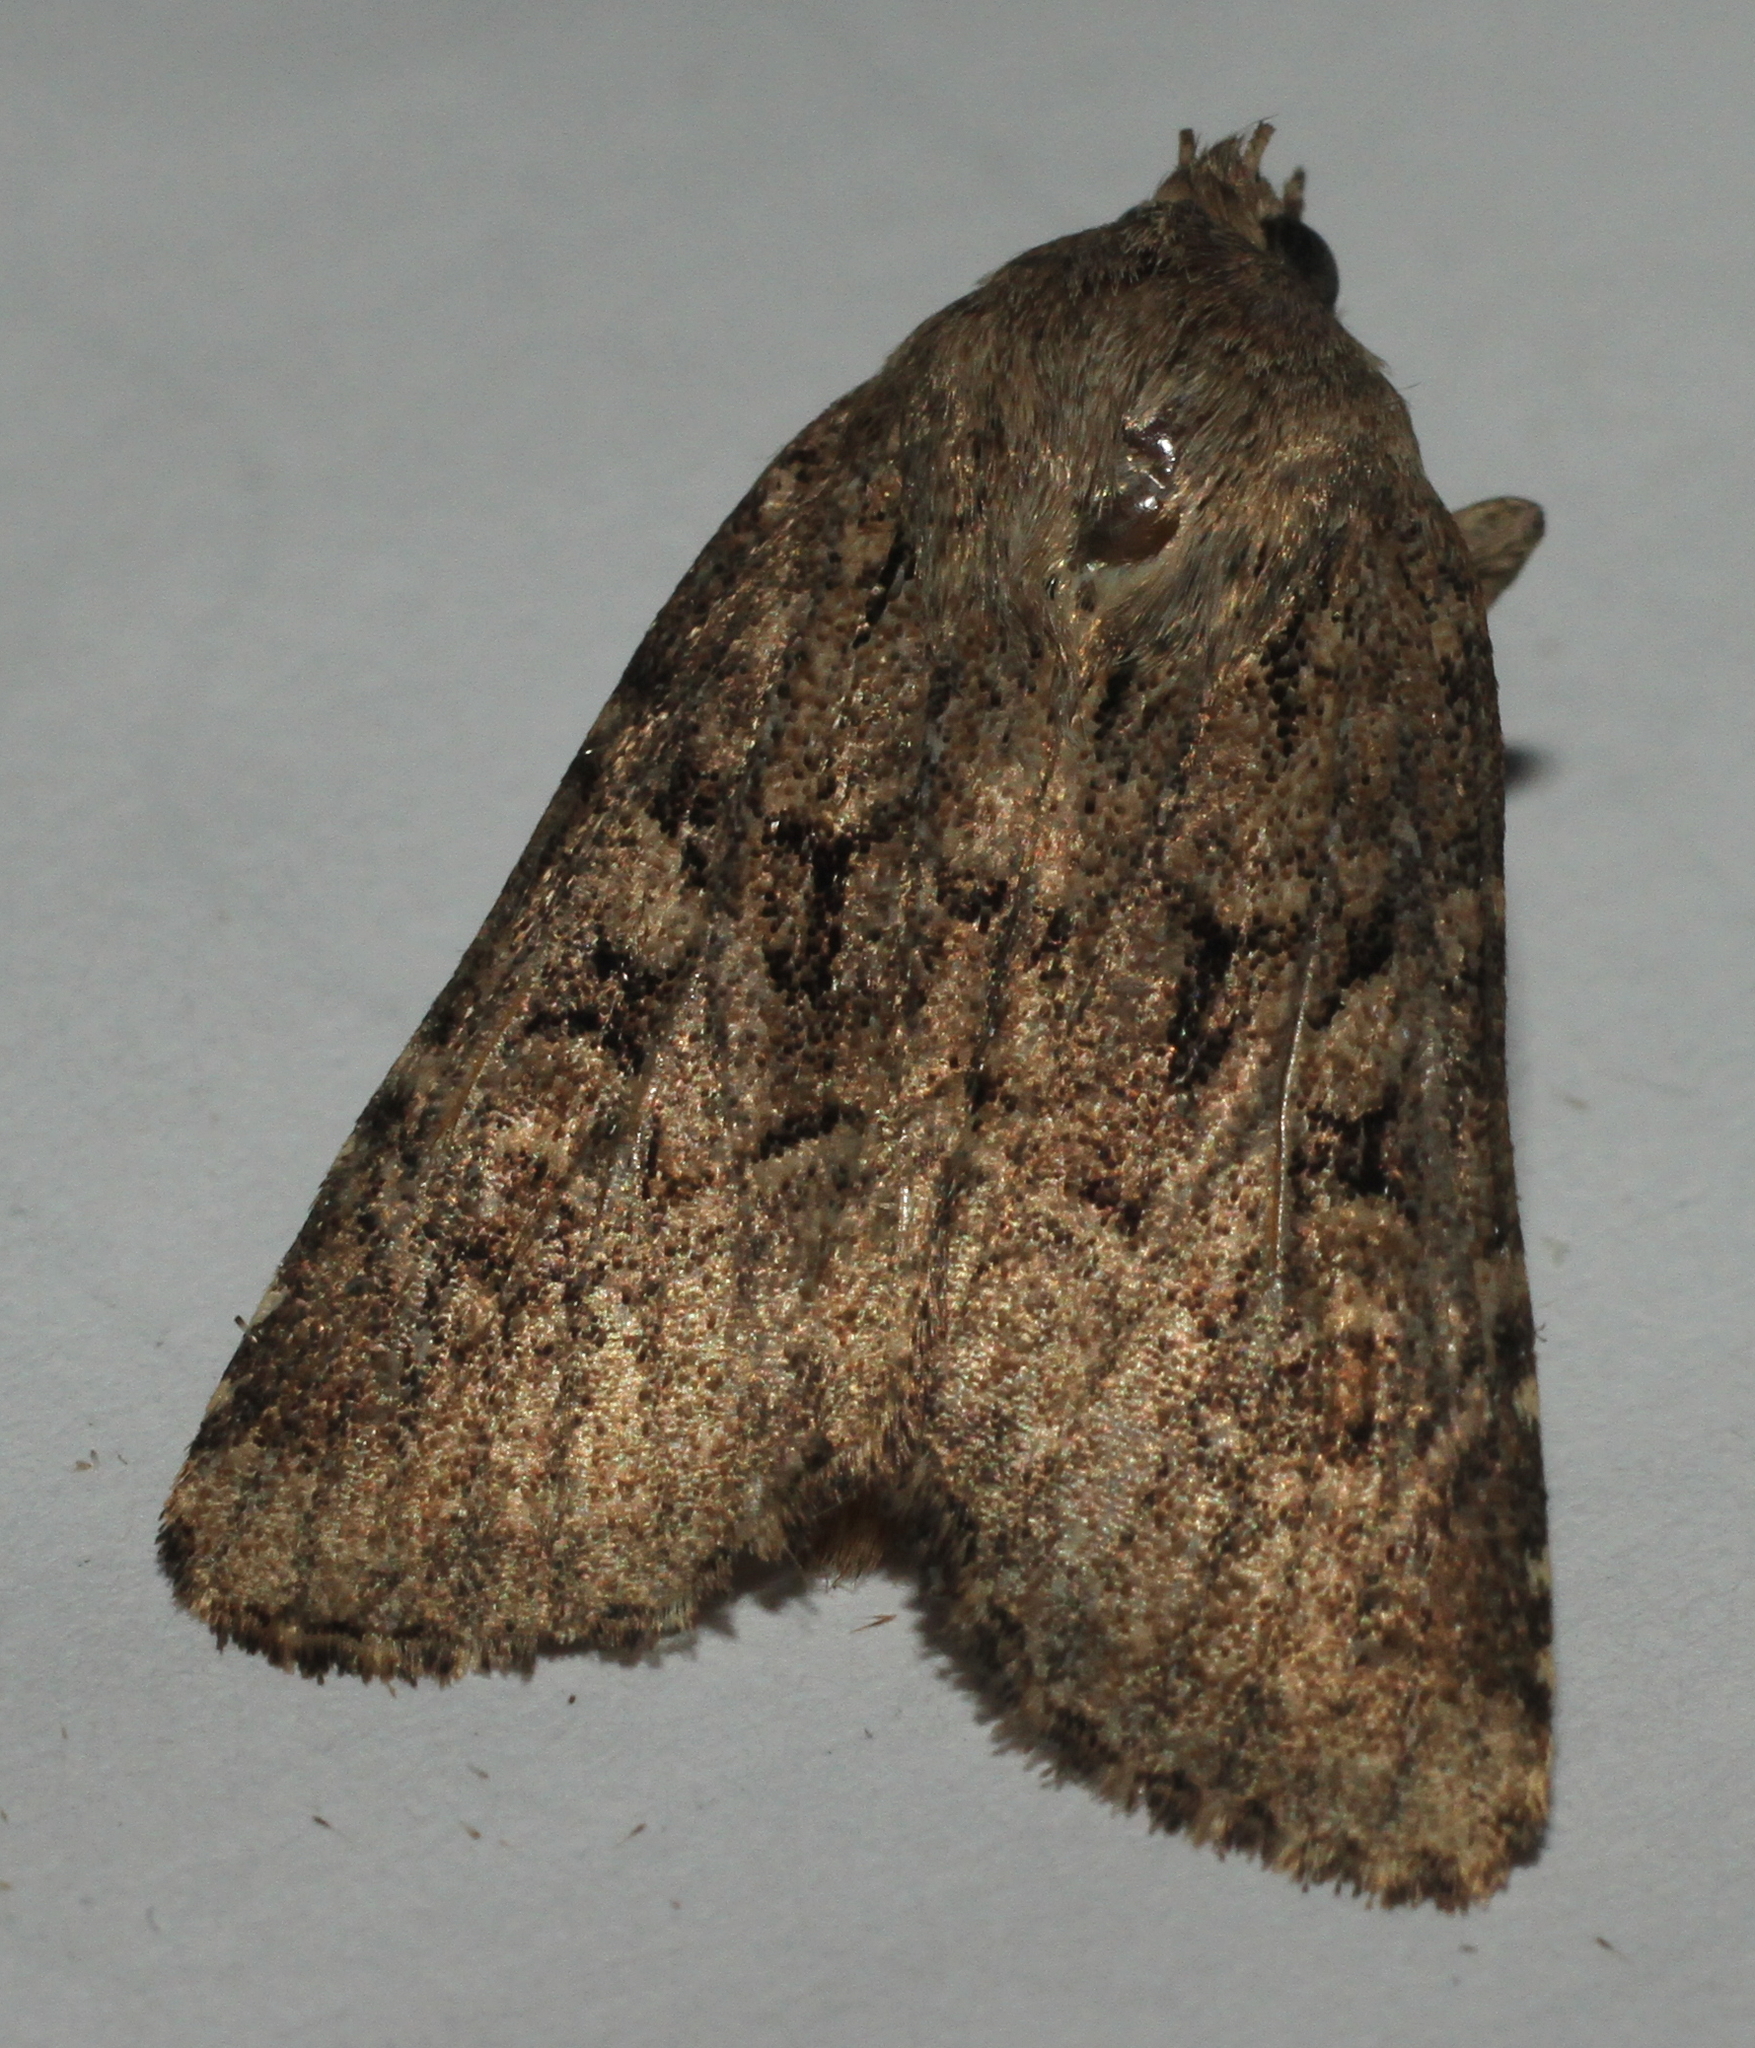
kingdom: Animalia
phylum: Arthropoda
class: Insecta
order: Lepidoptera
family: Noctuidae
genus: Luperina
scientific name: Luperina testacea
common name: Flounced rustic
